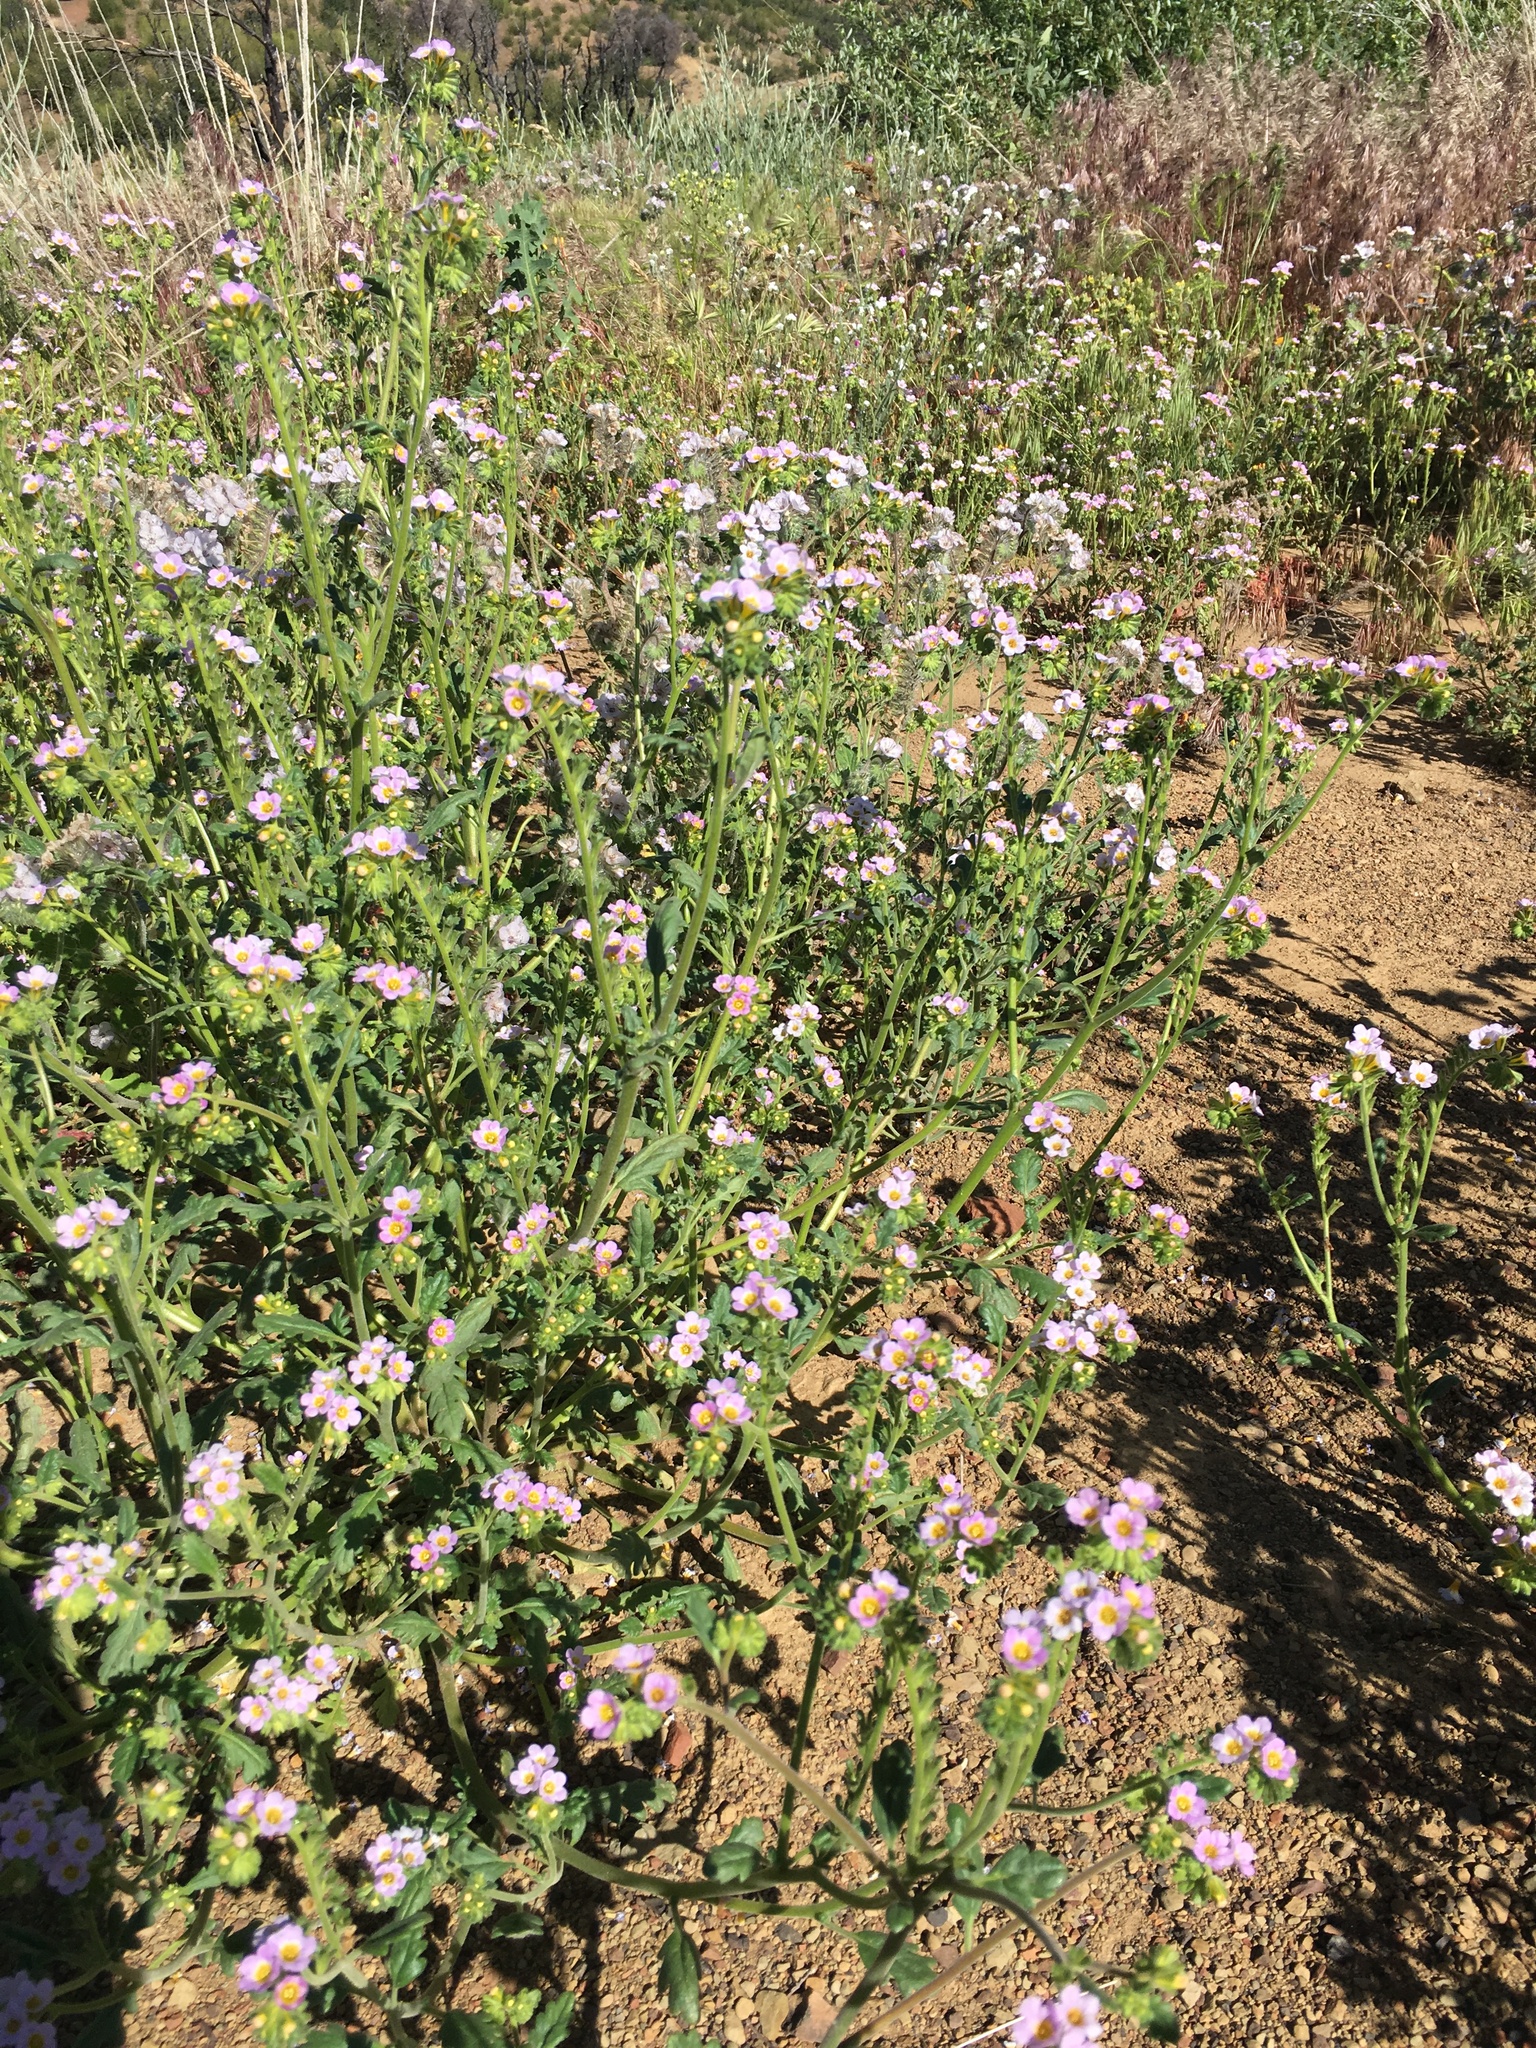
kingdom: Plantae
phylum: Tracheophyta
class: Magnoliopsida
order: Boraginales
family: Hydrophyllaceae
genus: Phacelia
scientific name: Phacelia brachyloba
